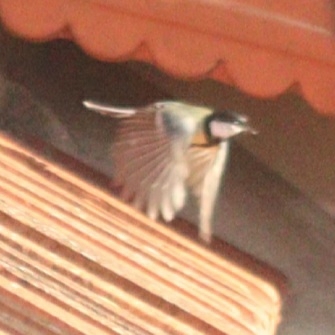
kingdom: Animalia
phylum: Chordata
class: Aves
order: Passeriformes
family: Paridae
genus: Parus
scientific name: Parus major
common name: Great tit
